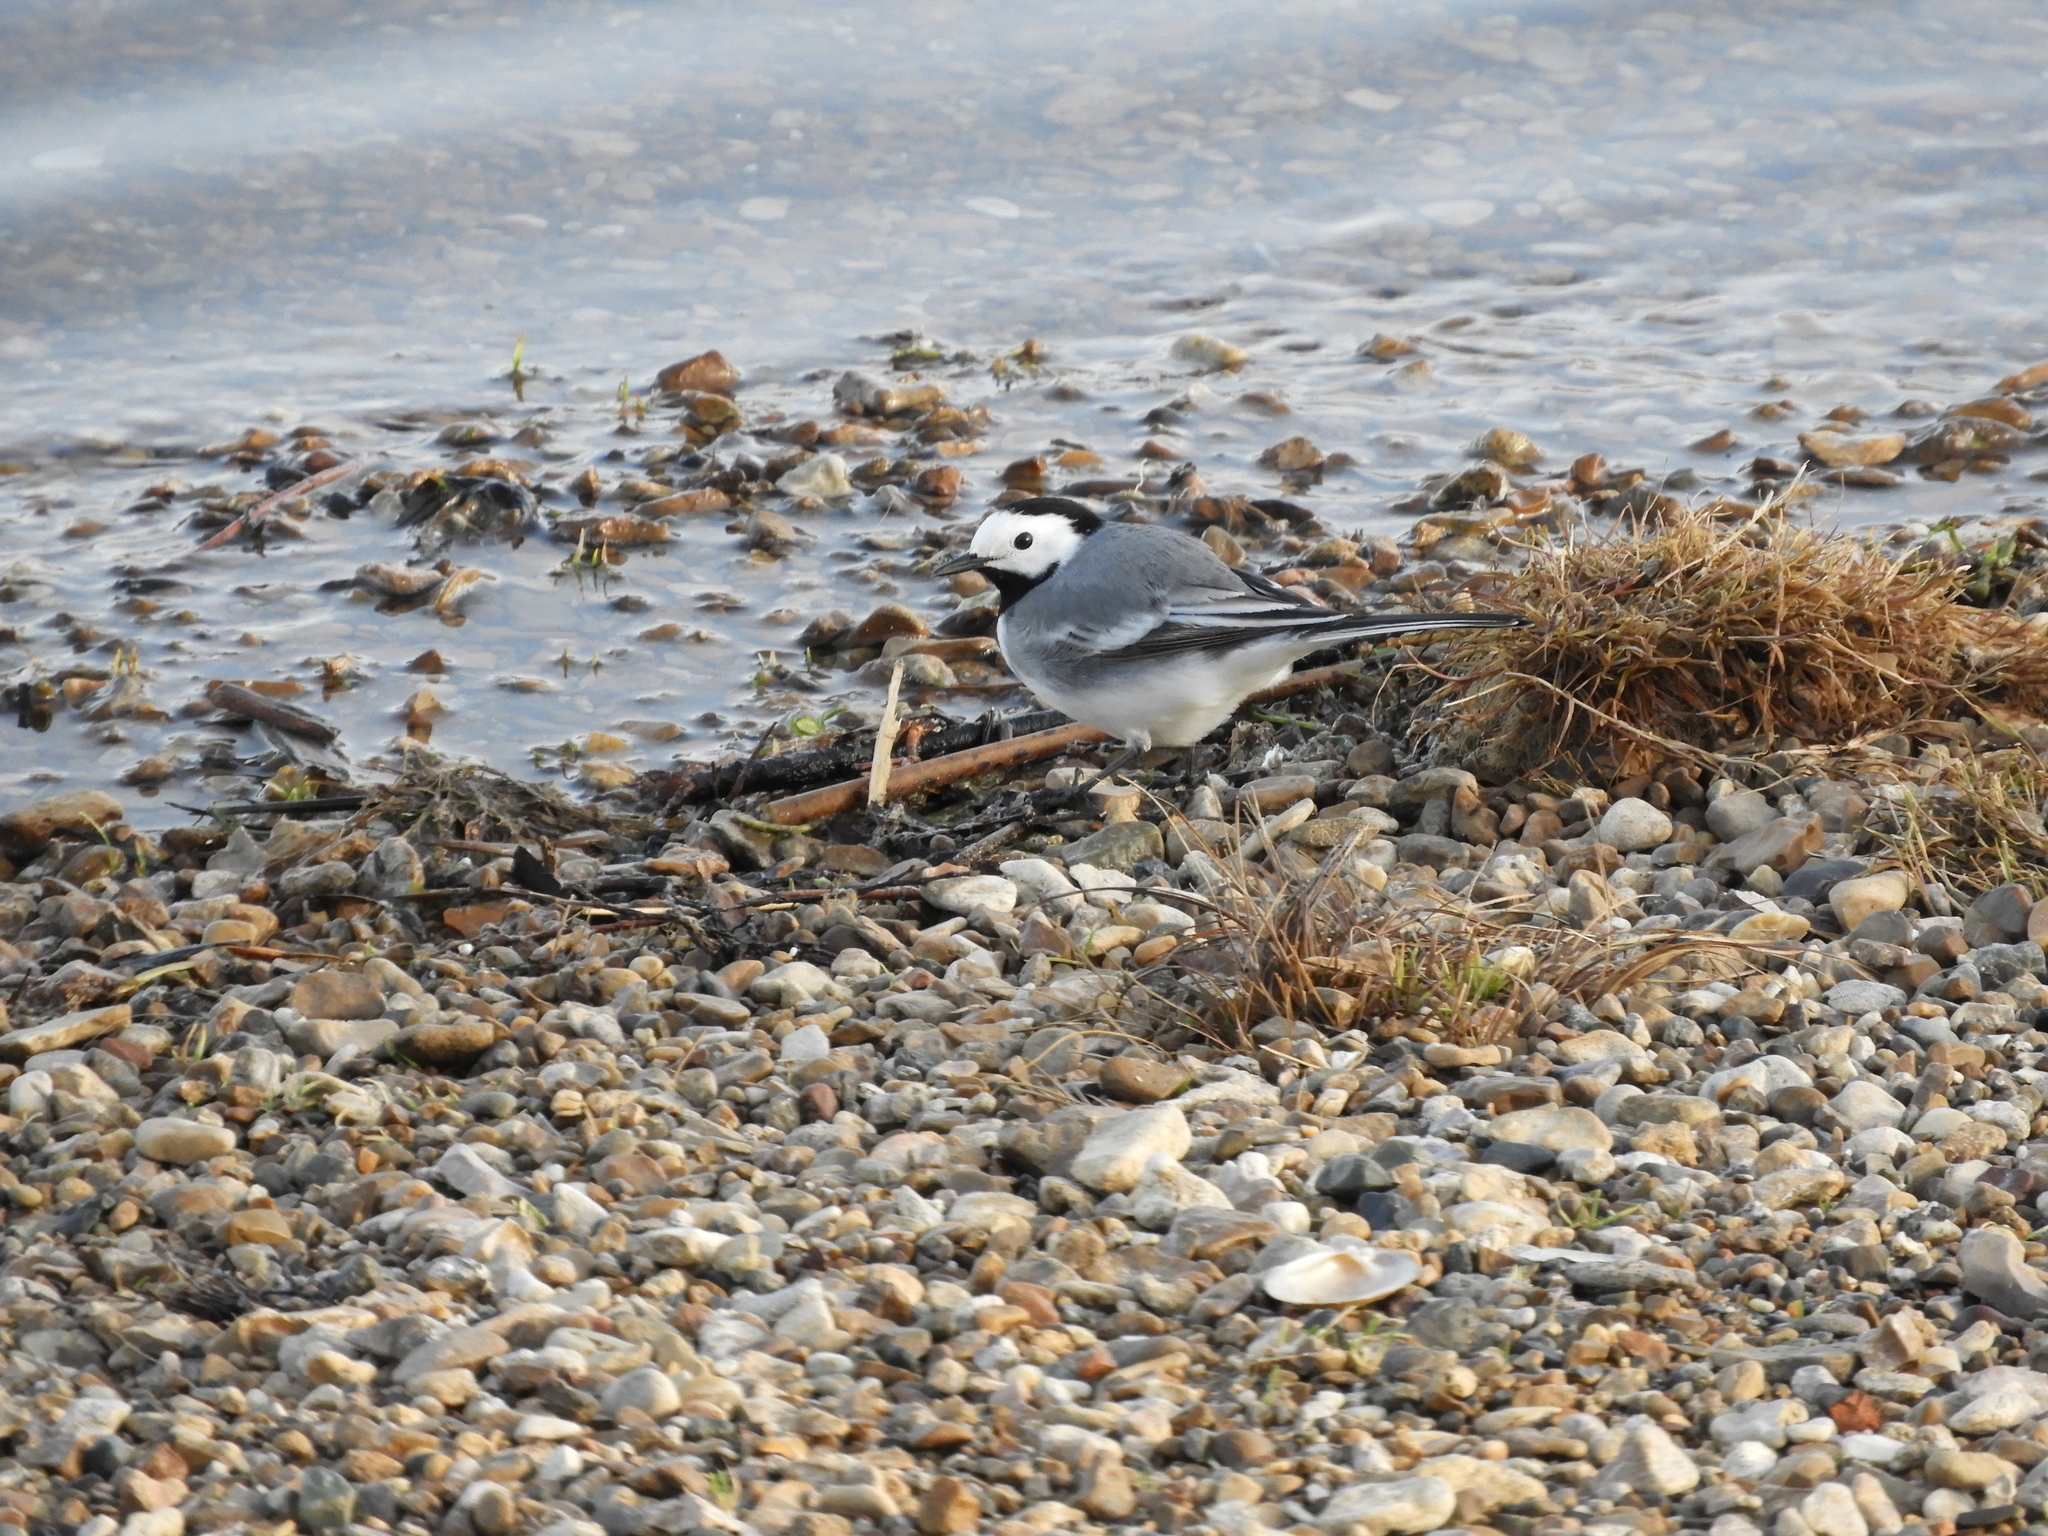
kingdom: Animalia
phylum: Chordata
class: Aves
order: Passeriformes
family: Motacillidae
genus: Motacilla
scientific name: Motacilla alba
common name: White wagtail
